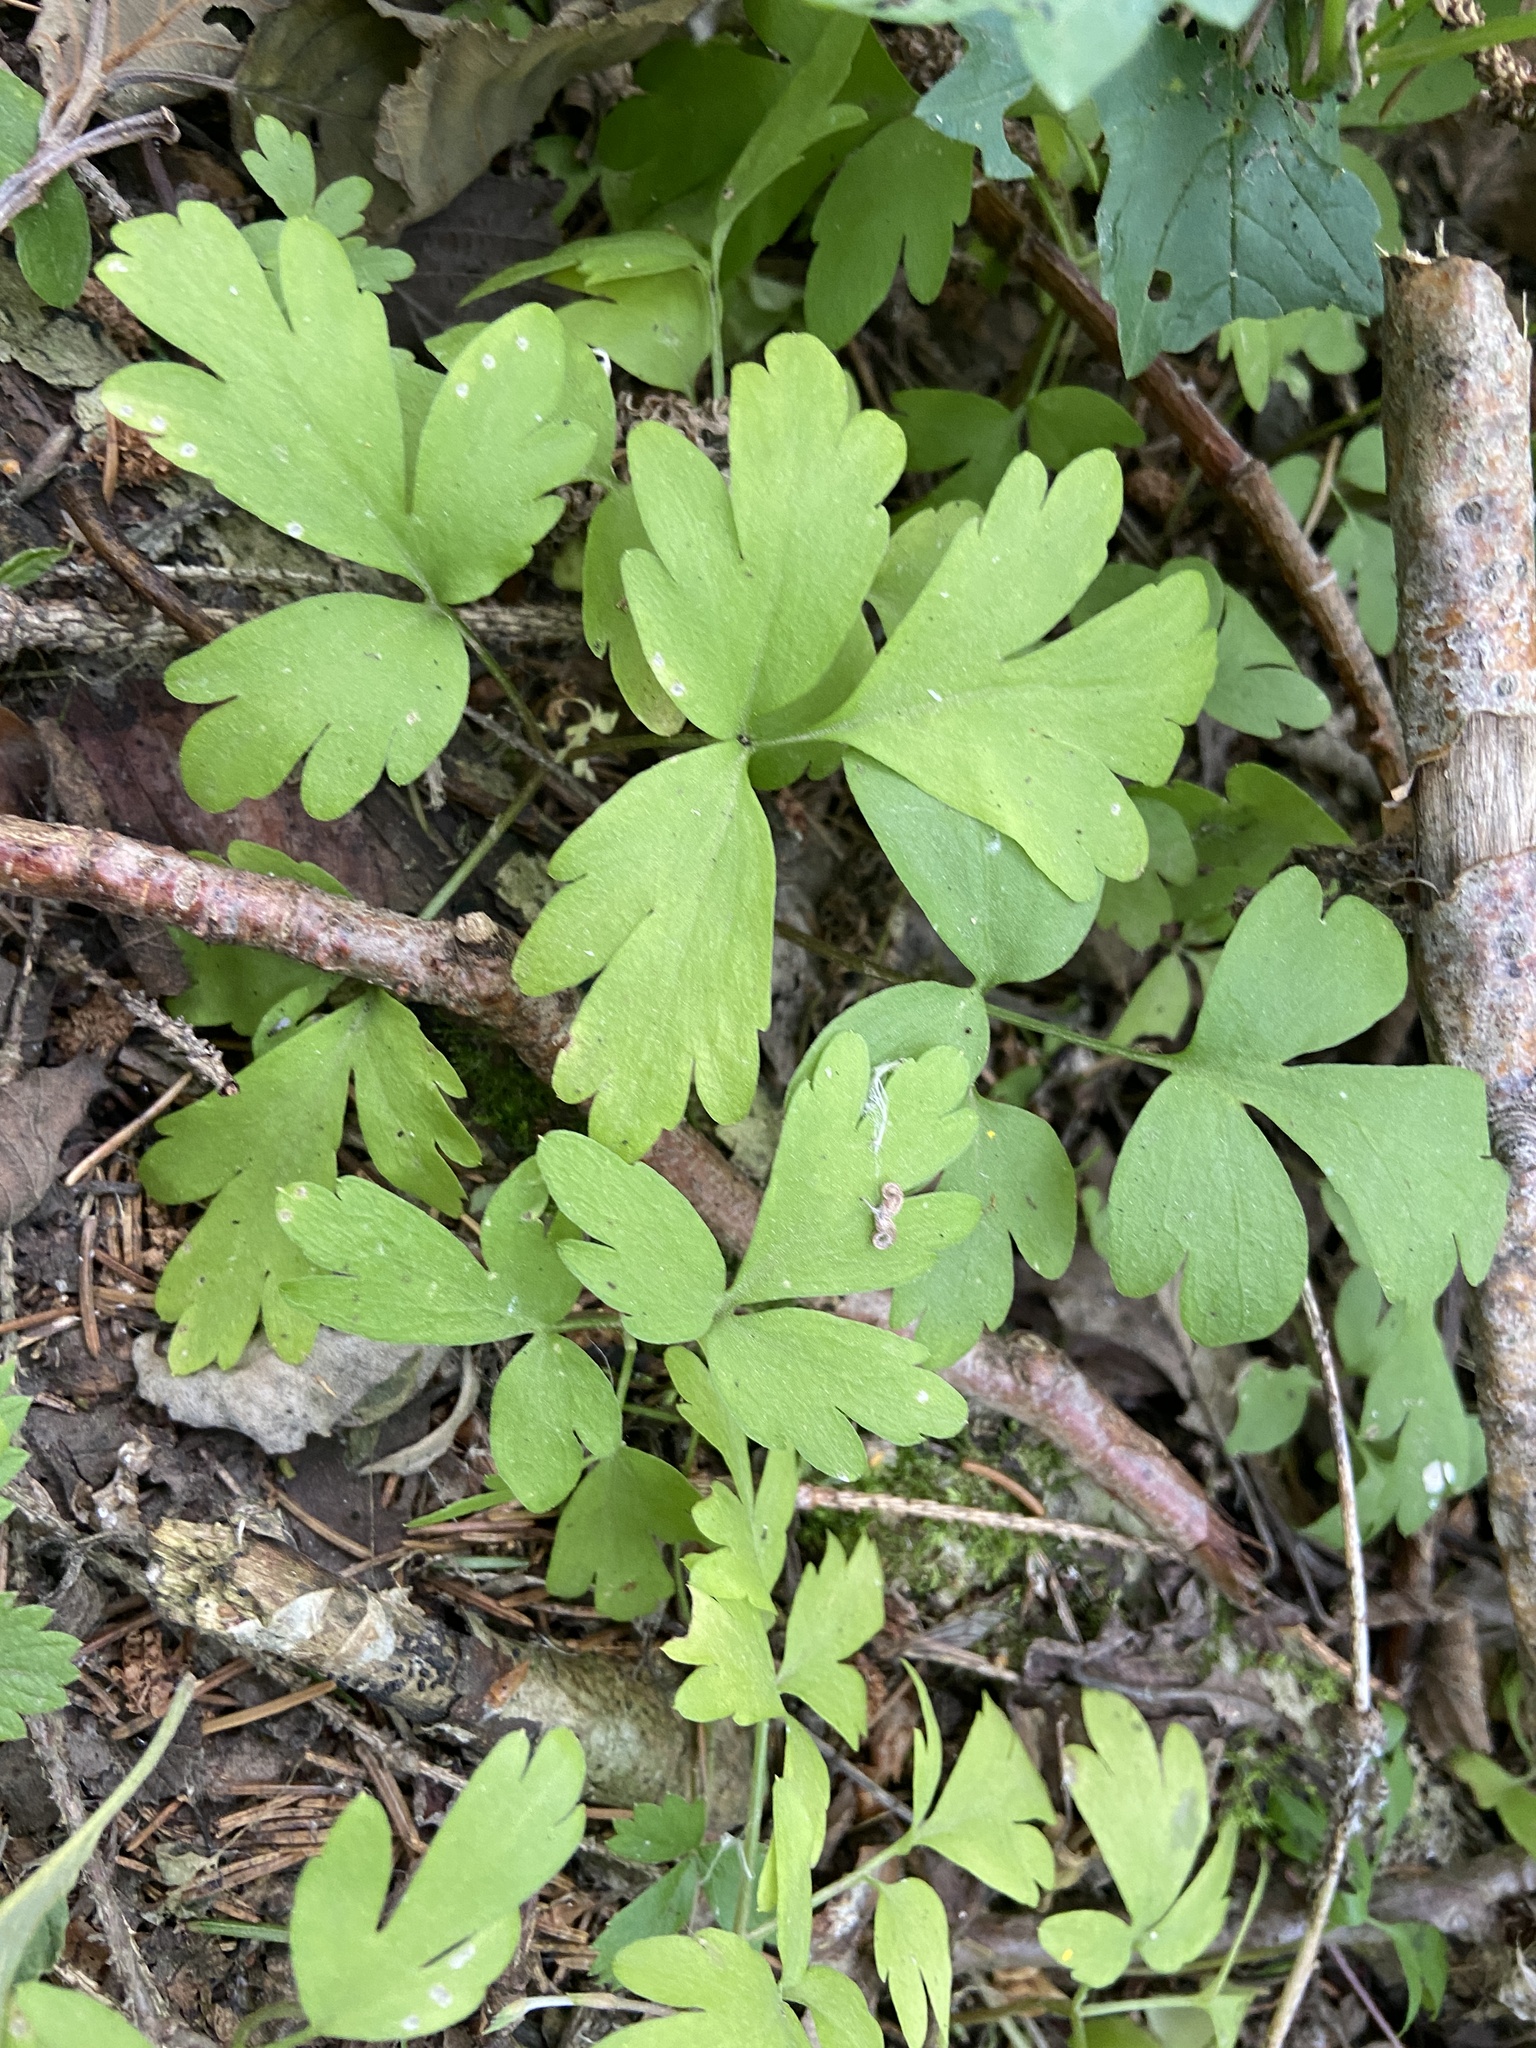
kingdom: Plantae
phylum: Tracheophyta
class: Magnoliopsida
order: Dipsacales
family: Viburnaceae
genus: Adoxa
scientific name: Adoxa moschatellina
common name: Moschatel
